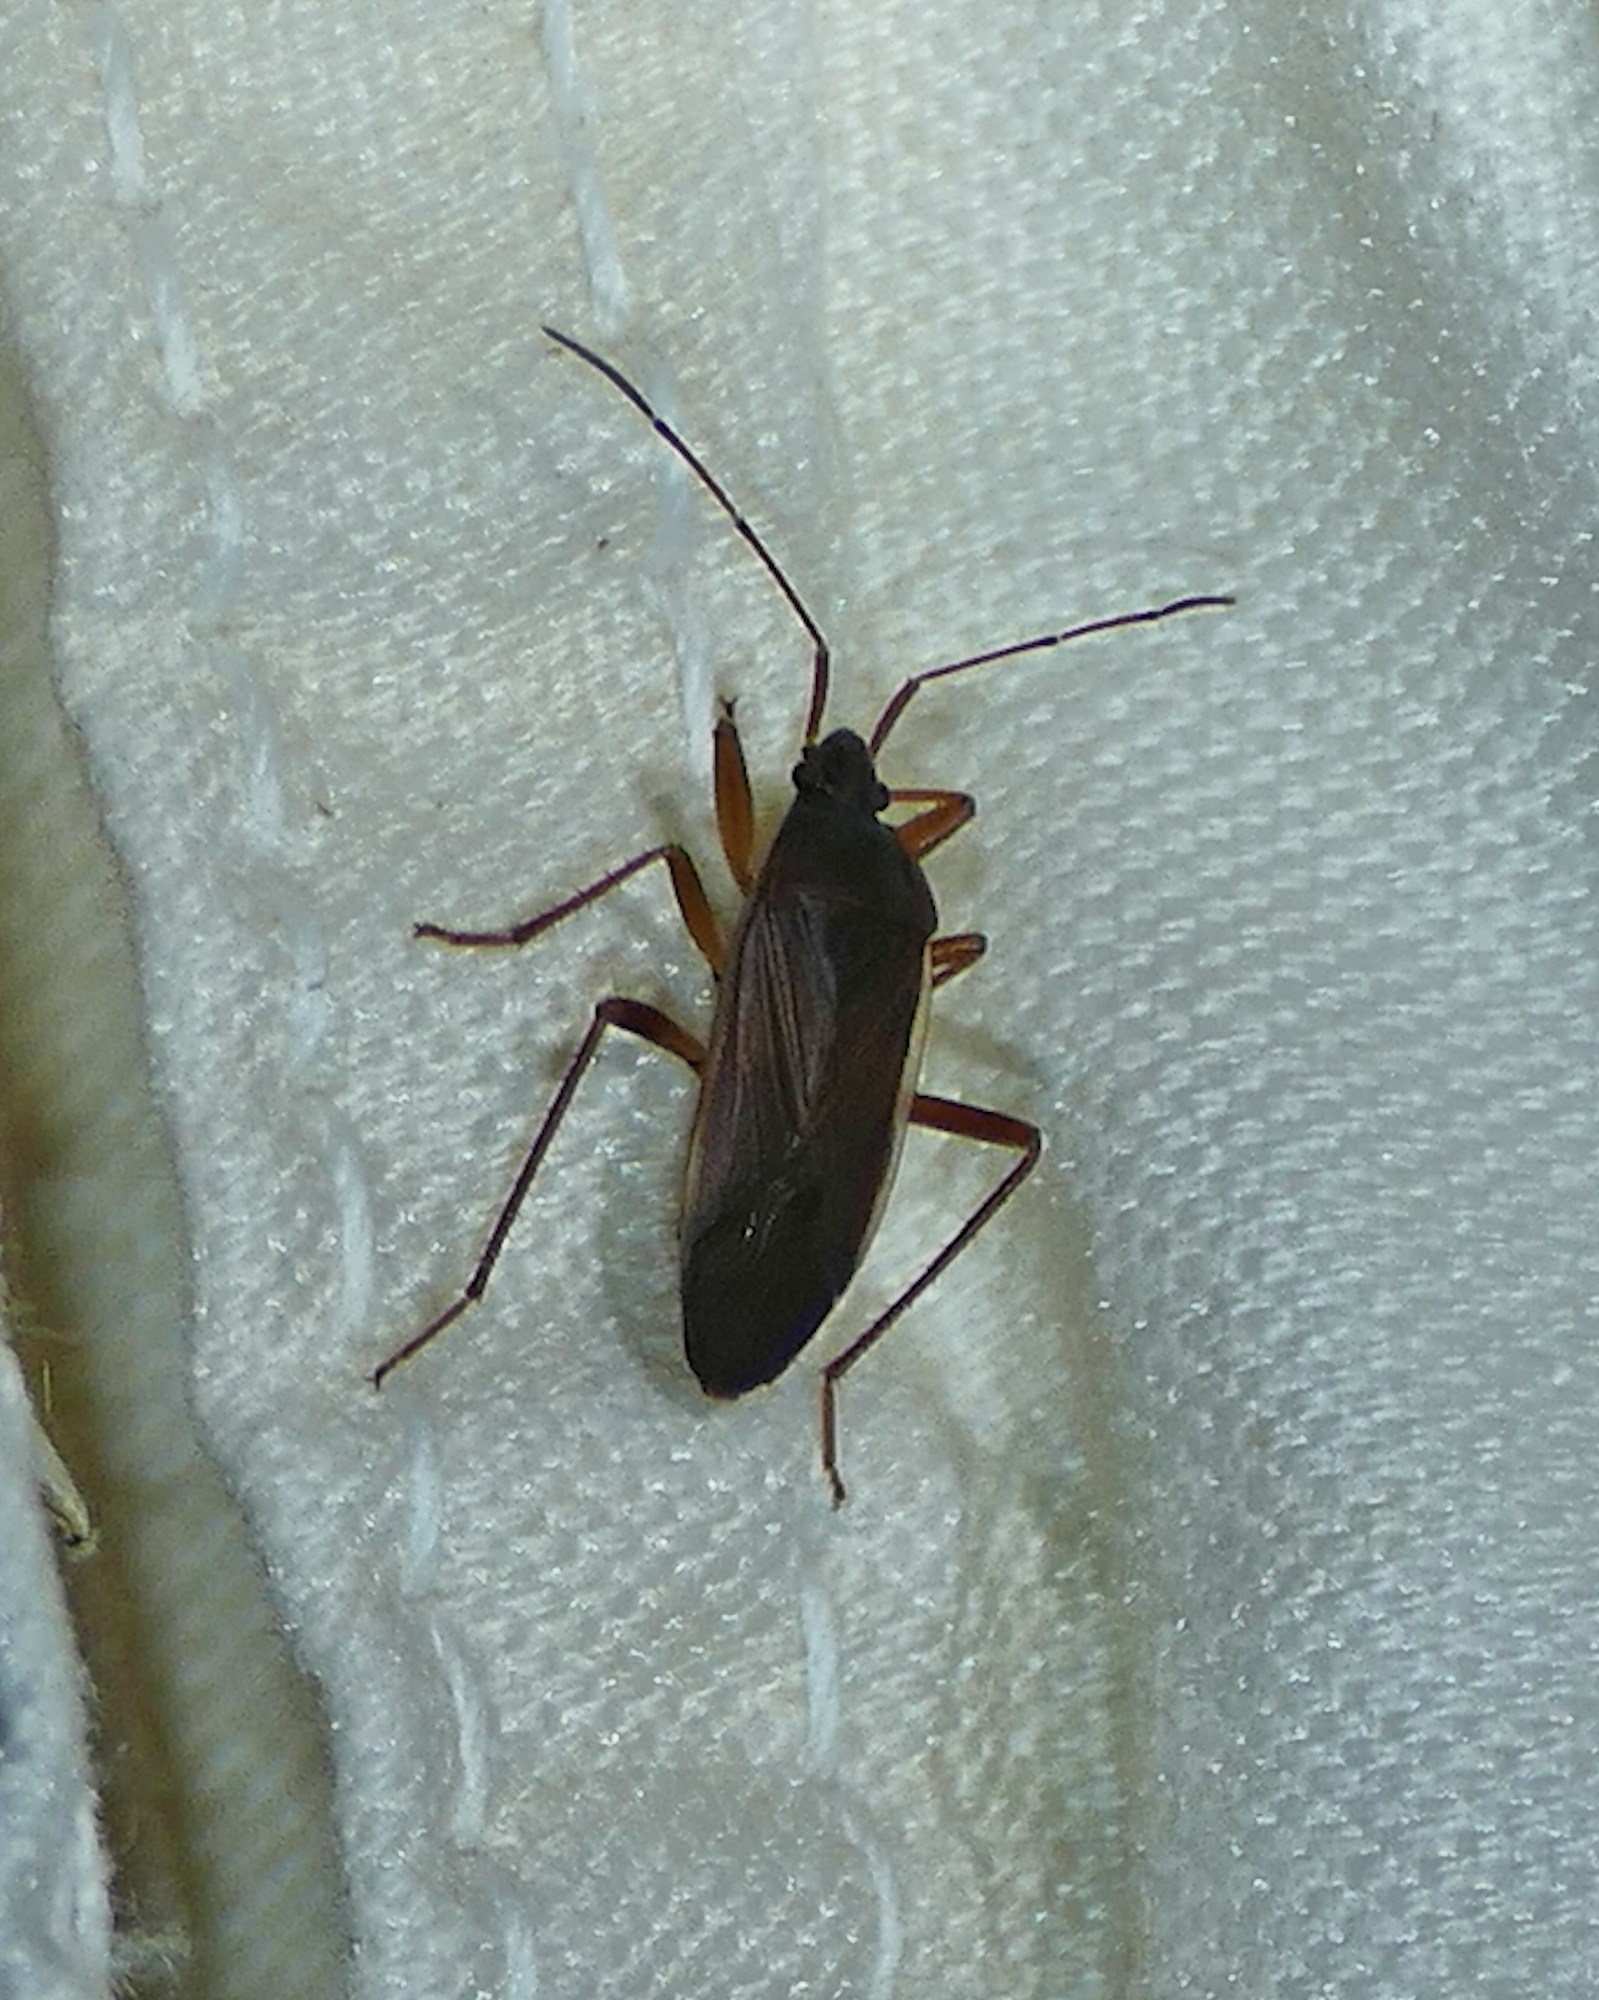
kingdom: Animalia
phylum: Arthropoda
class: Insecta
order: Hemiptera
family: Rhyparochromidae
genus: Balboa
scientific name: Balboa ampliata
